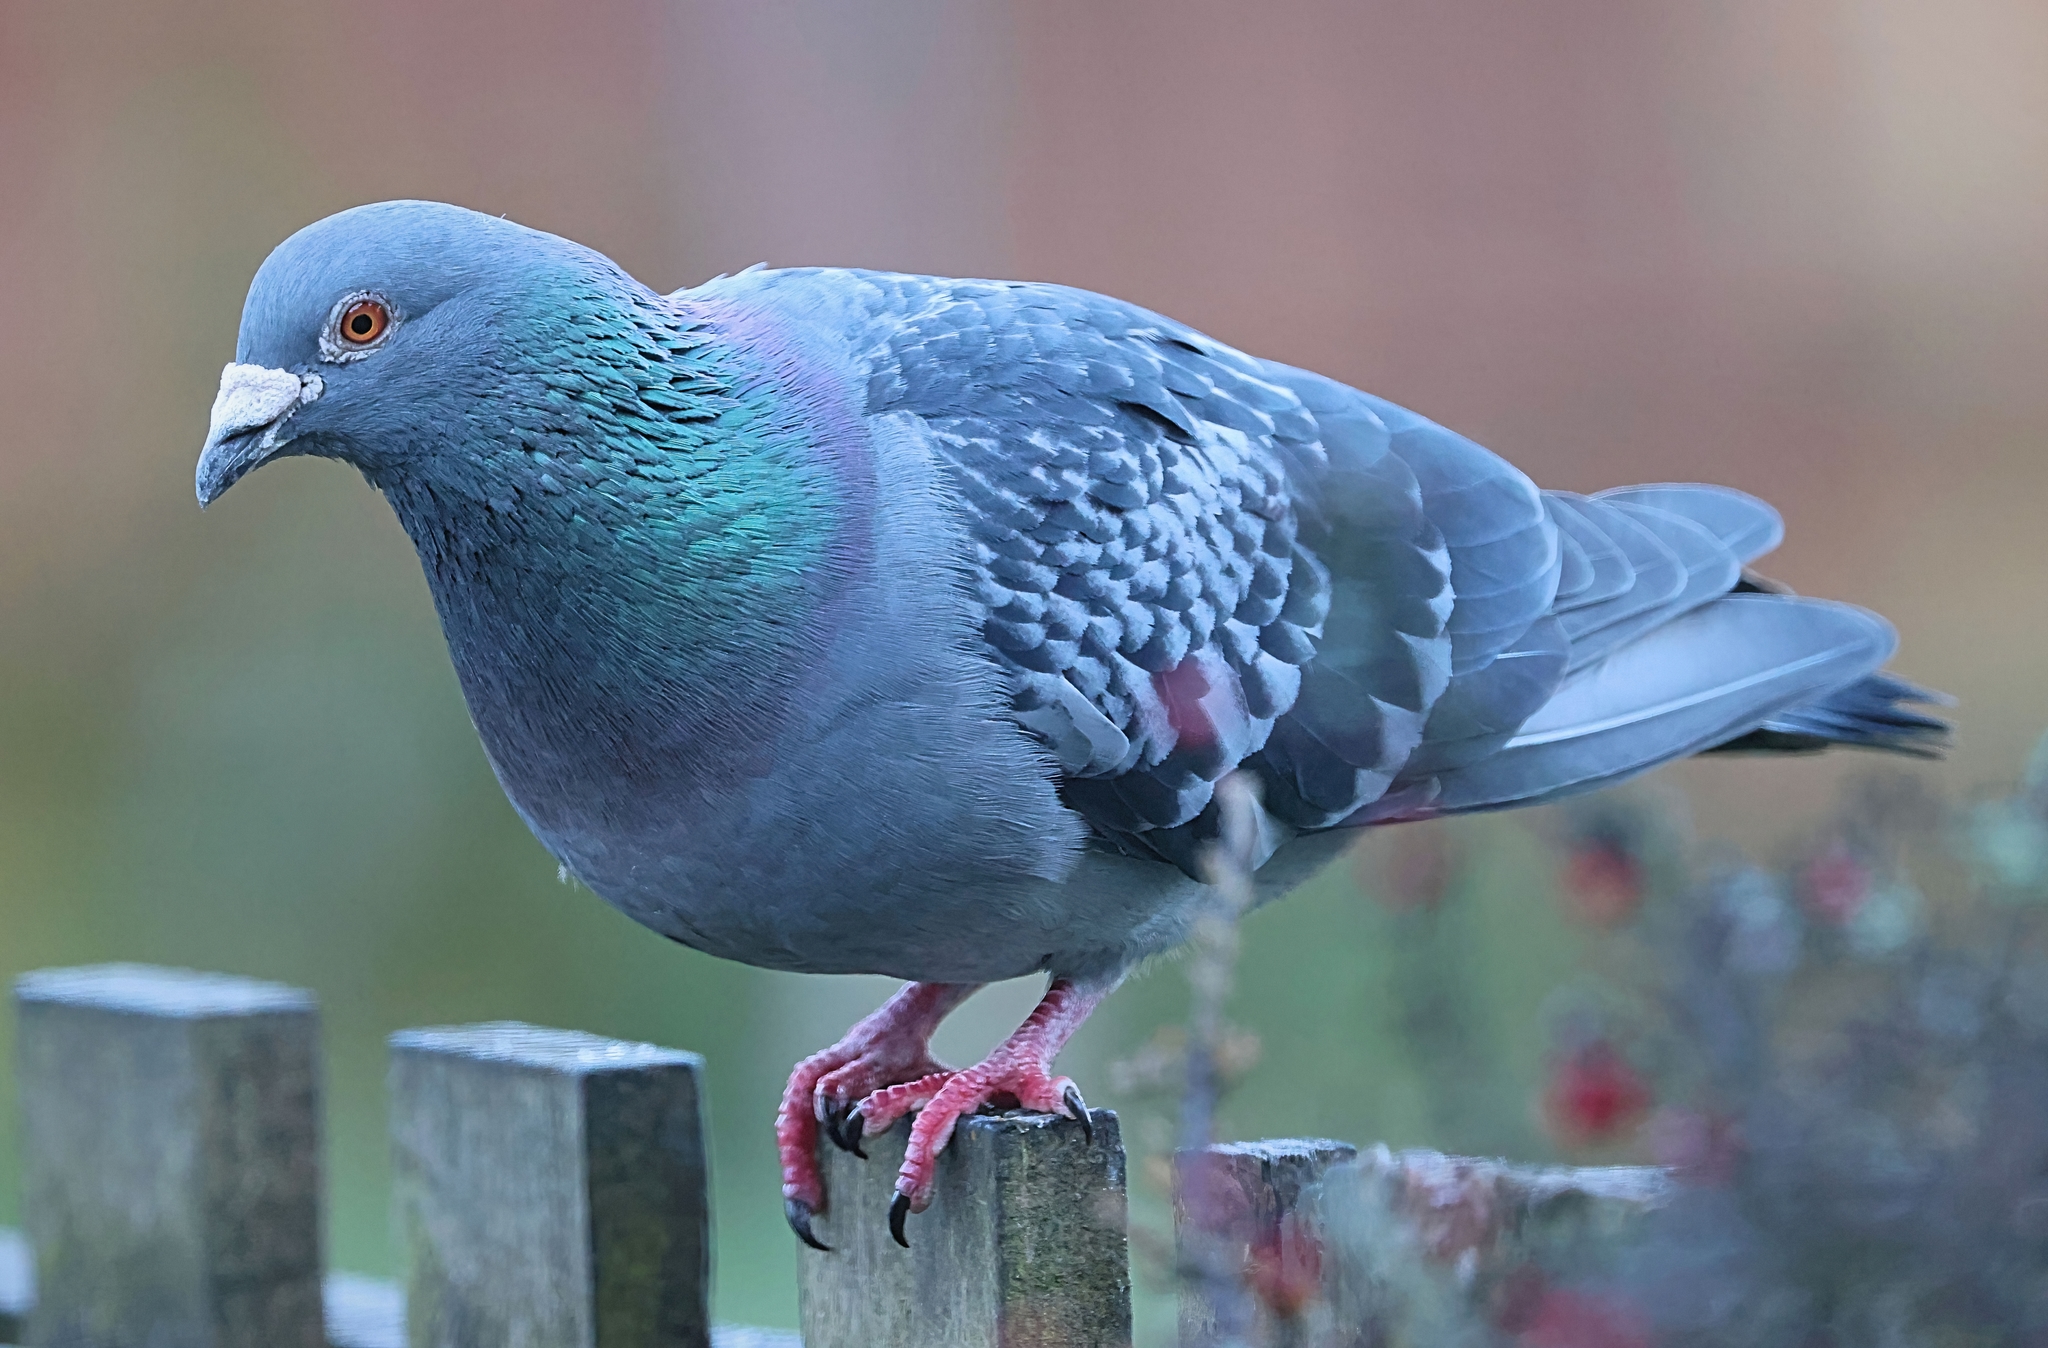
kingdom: Animalia
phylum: Chordata
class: Aves
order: Columbiformes
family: Columbidae
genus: Columba
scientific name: Columba livia
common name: Rock pigeon
